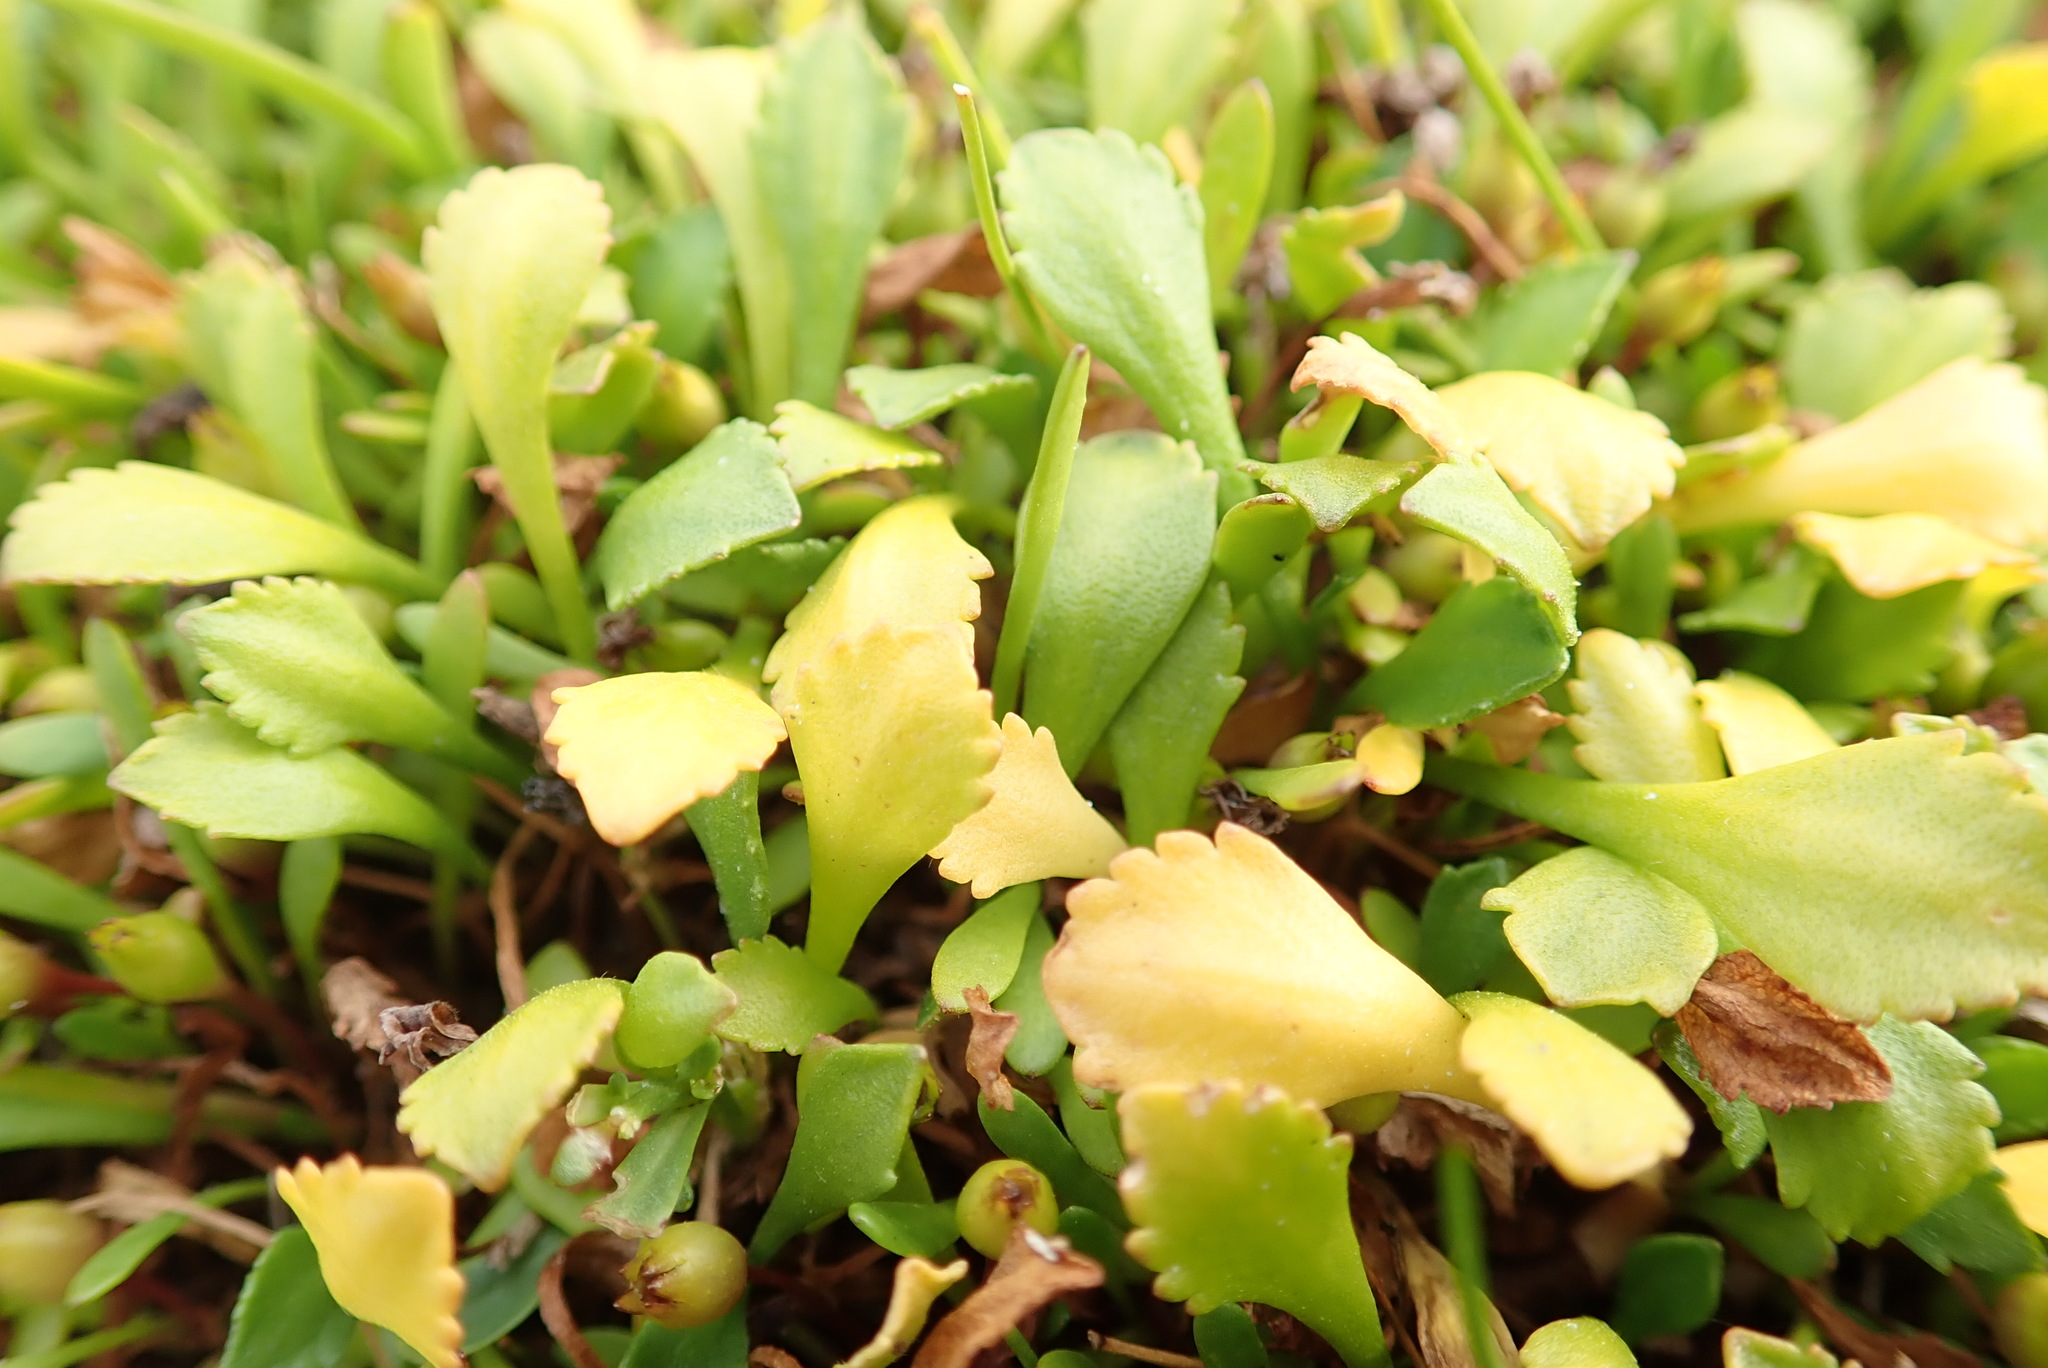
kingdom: Plantae
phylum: Tracheophyta
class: Magnoliopsida
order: Asterales
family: Asteraceae
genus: Leptinella
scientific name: Leptinella dioica
